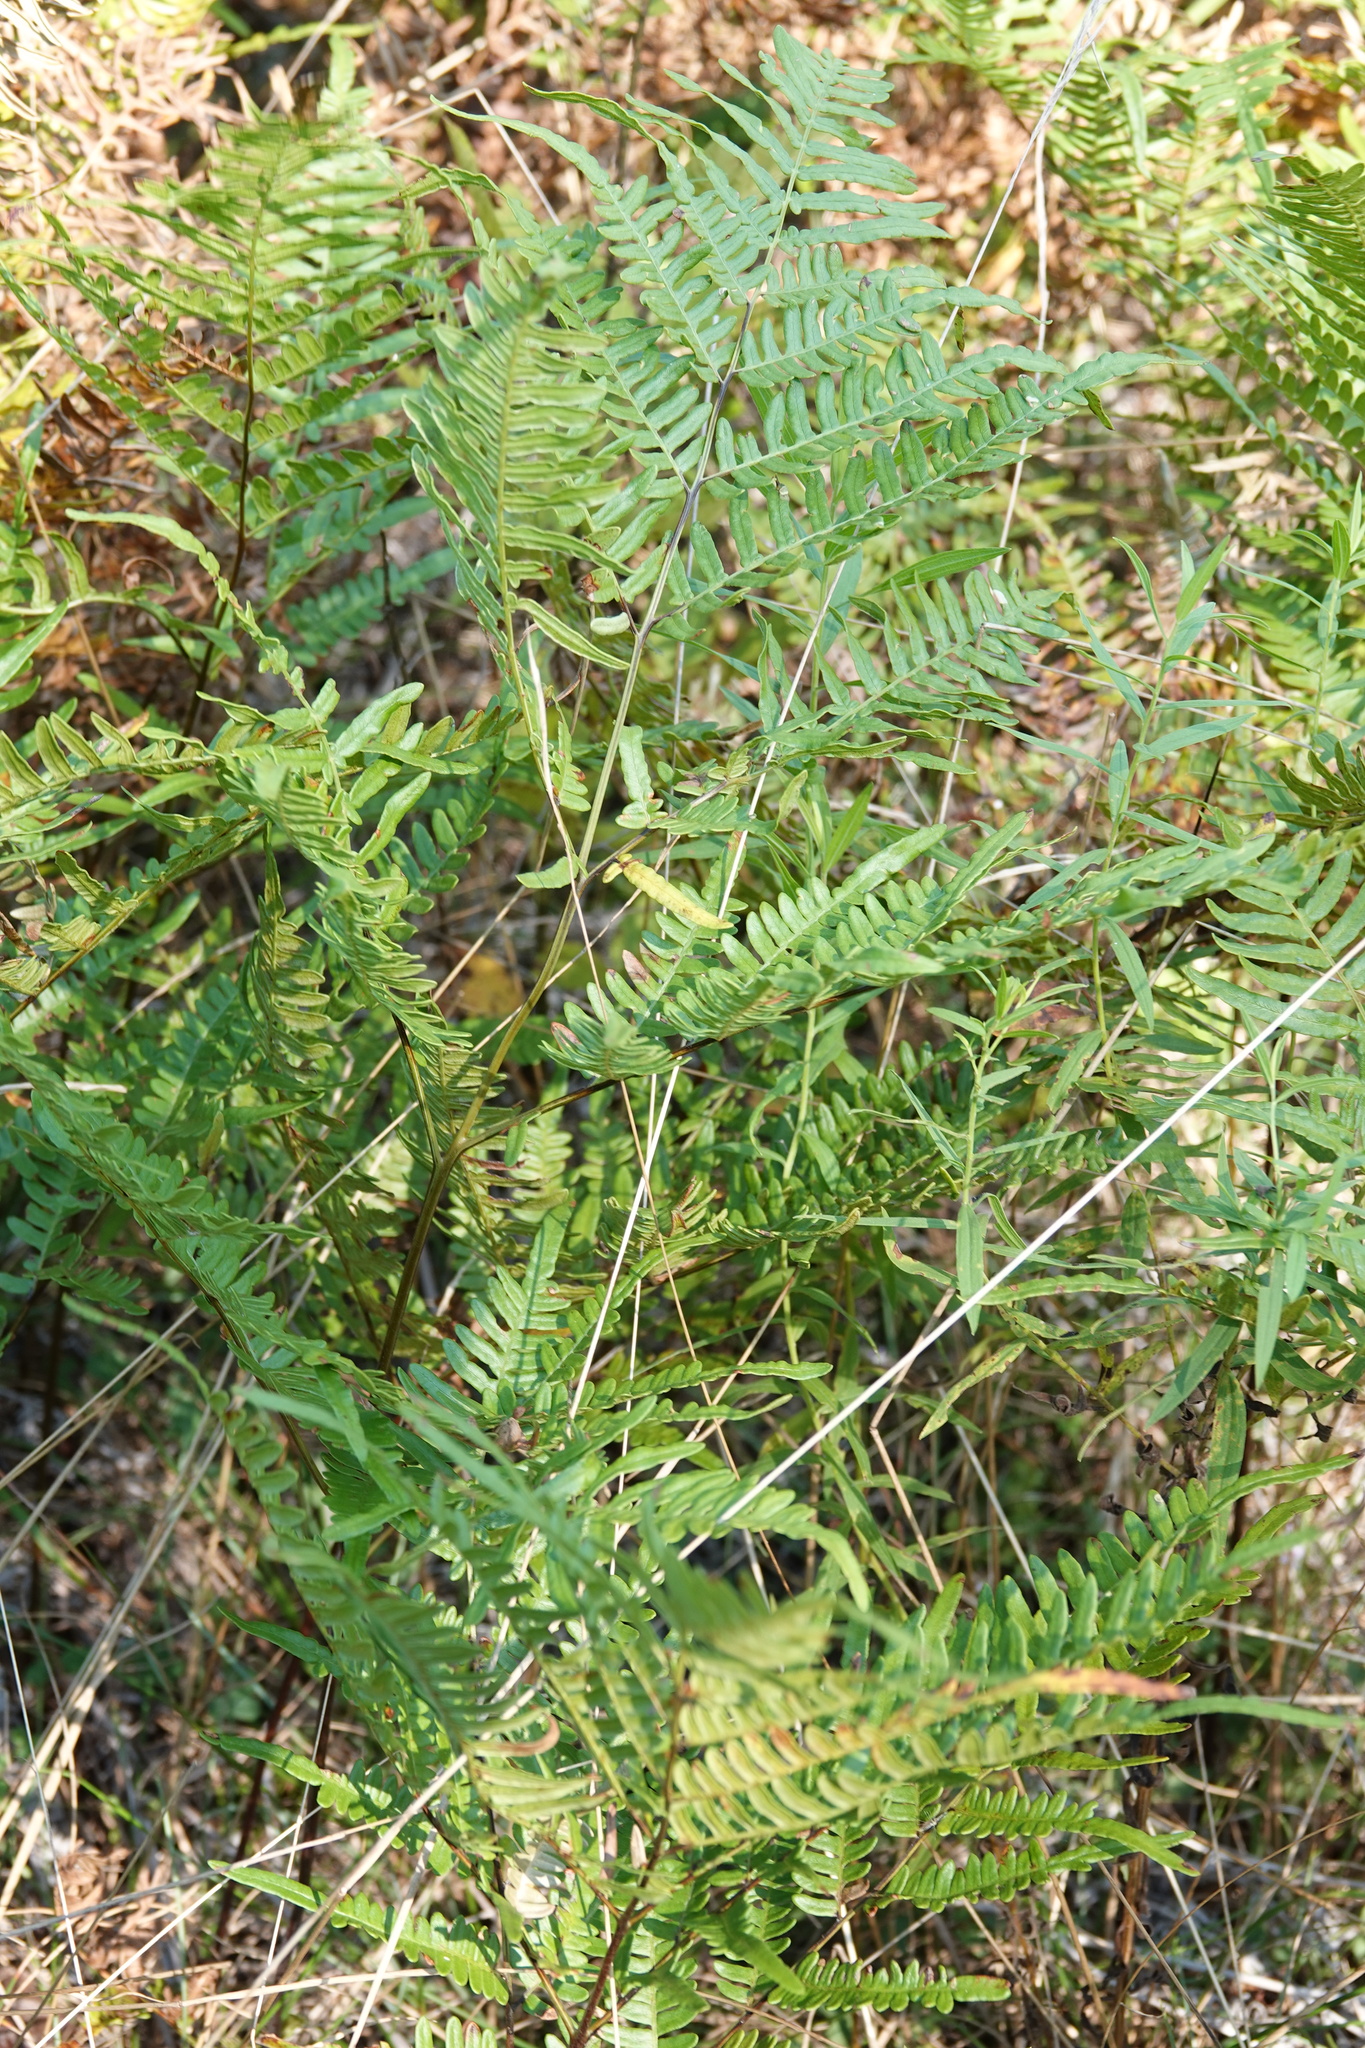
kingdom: Plantae
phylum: Tracheophyta
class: Polypodiopsida
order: Polypodiales
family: Dennstaedtiaceae
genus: Pteridium
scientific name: Pteridium aquilinum
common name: Bracken
